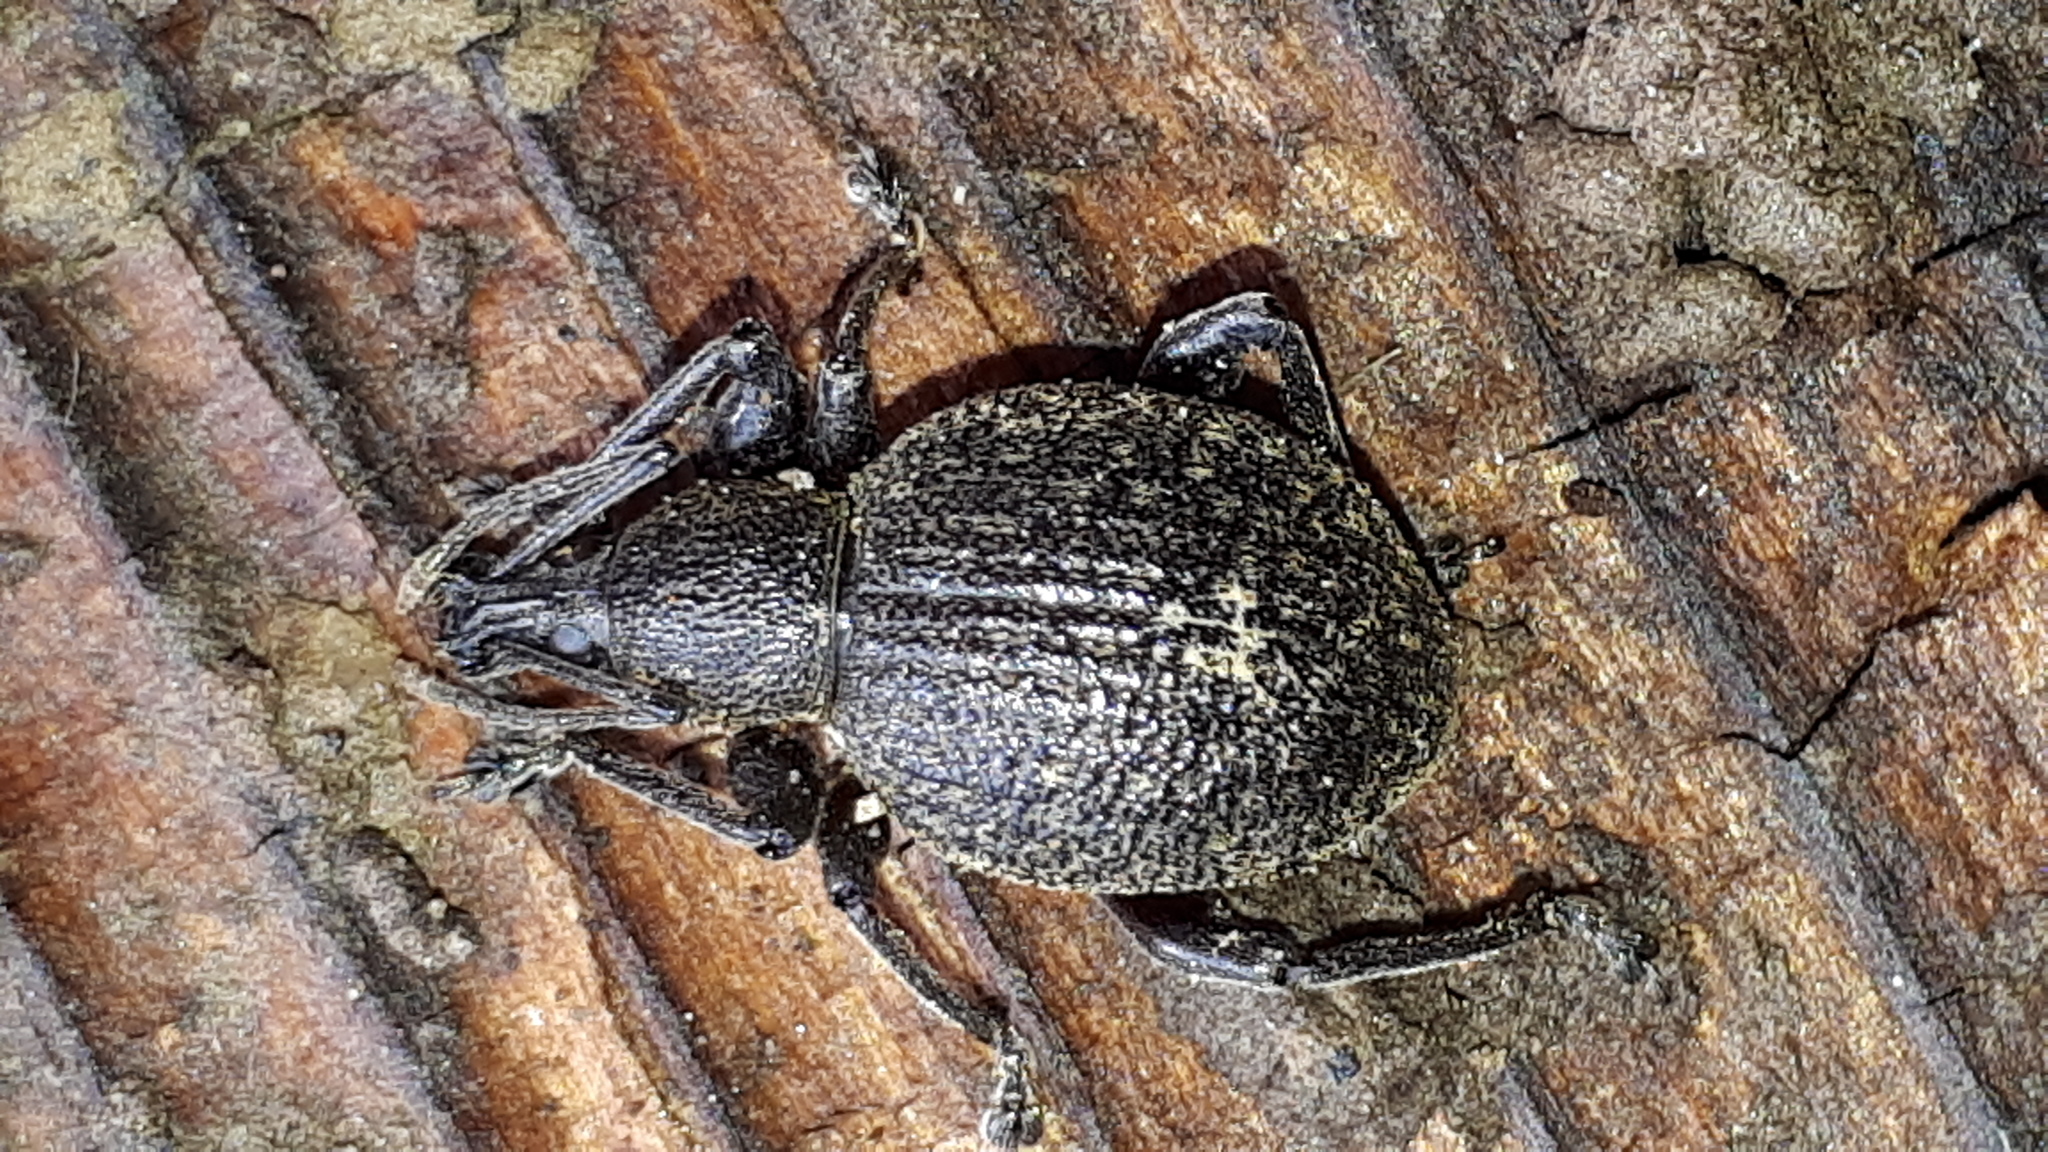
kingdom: Animalia
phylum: Arthropoda
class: Insecta
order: Coleoptera
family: Curculionidae
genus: Otiorhynchus
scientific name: Otiorhynchus armadillo
